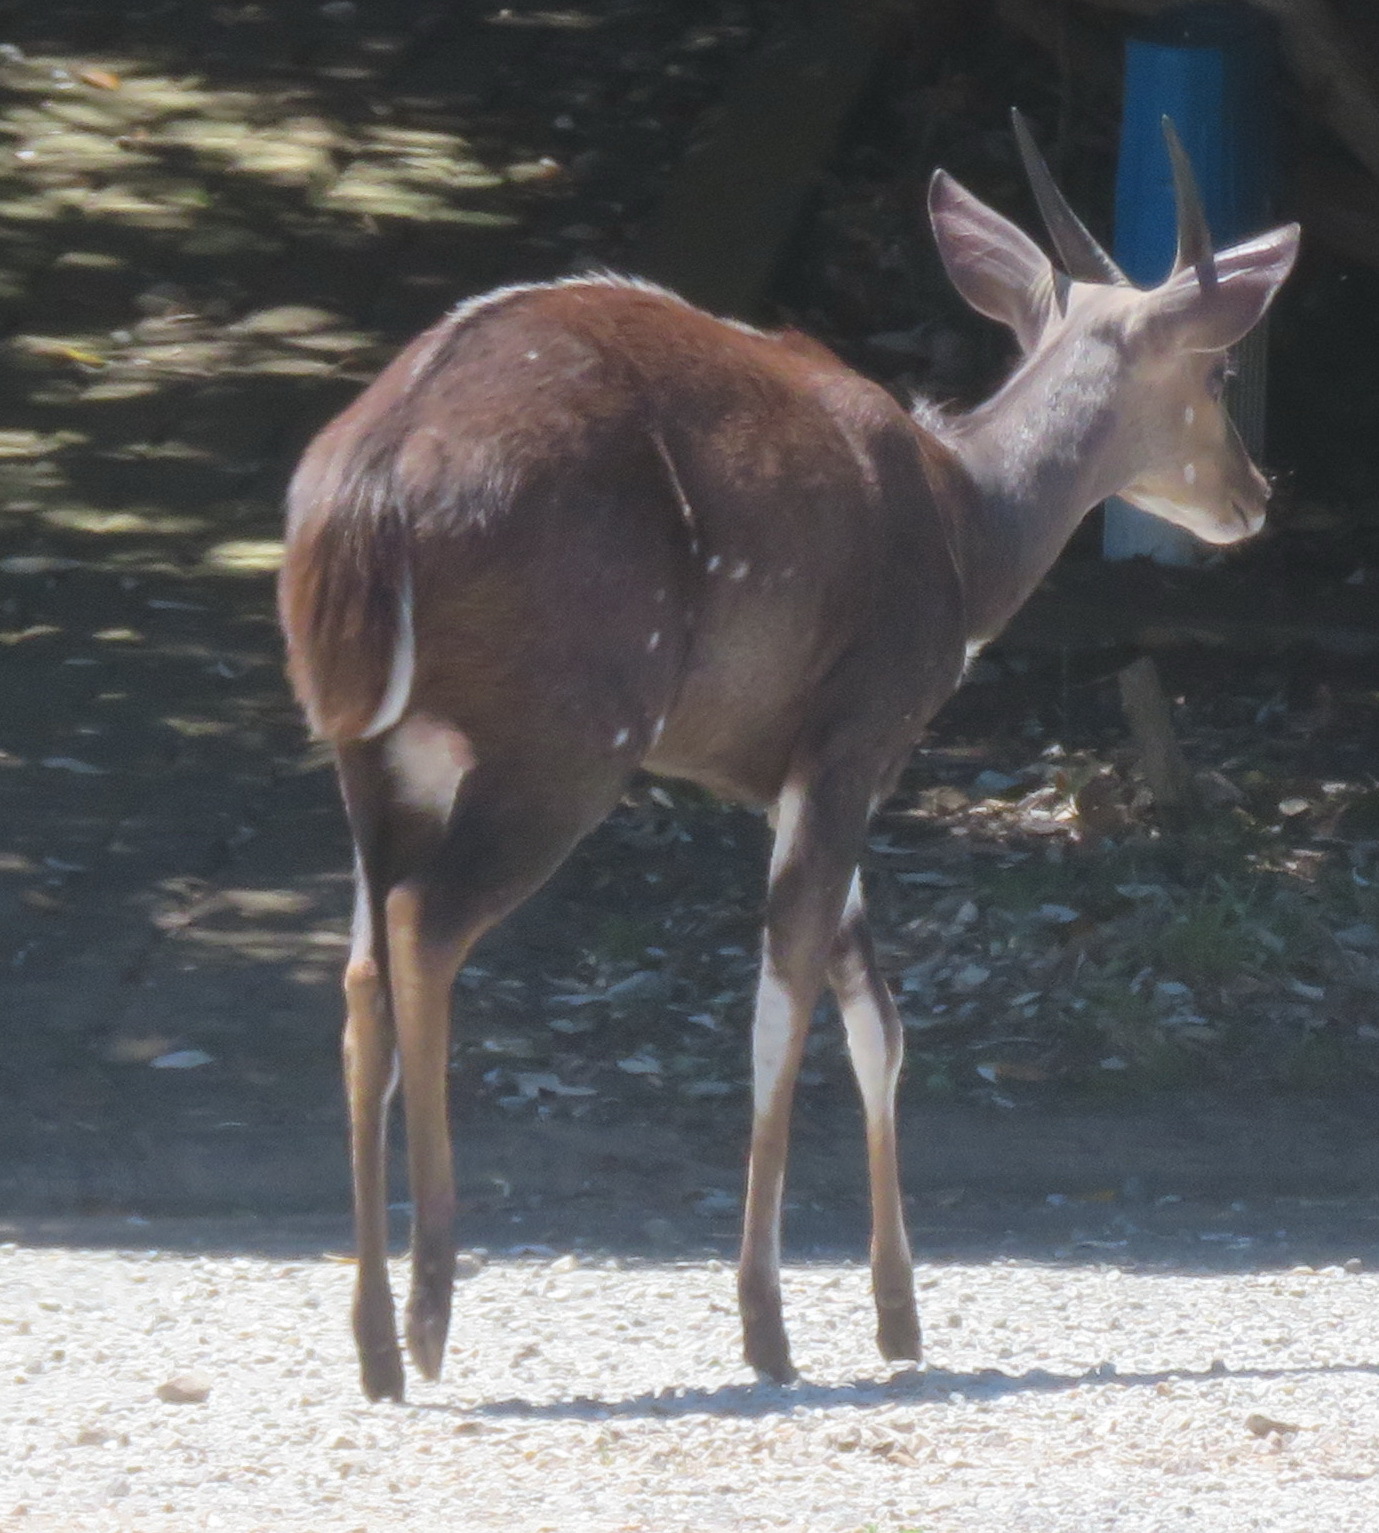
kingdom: Animalia
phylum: Chordata
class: Mammalia
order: Artiodactyla
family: Bovidae
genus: Tragelaphus
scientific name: Tragelaphus scriptus
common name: Bushbuck
